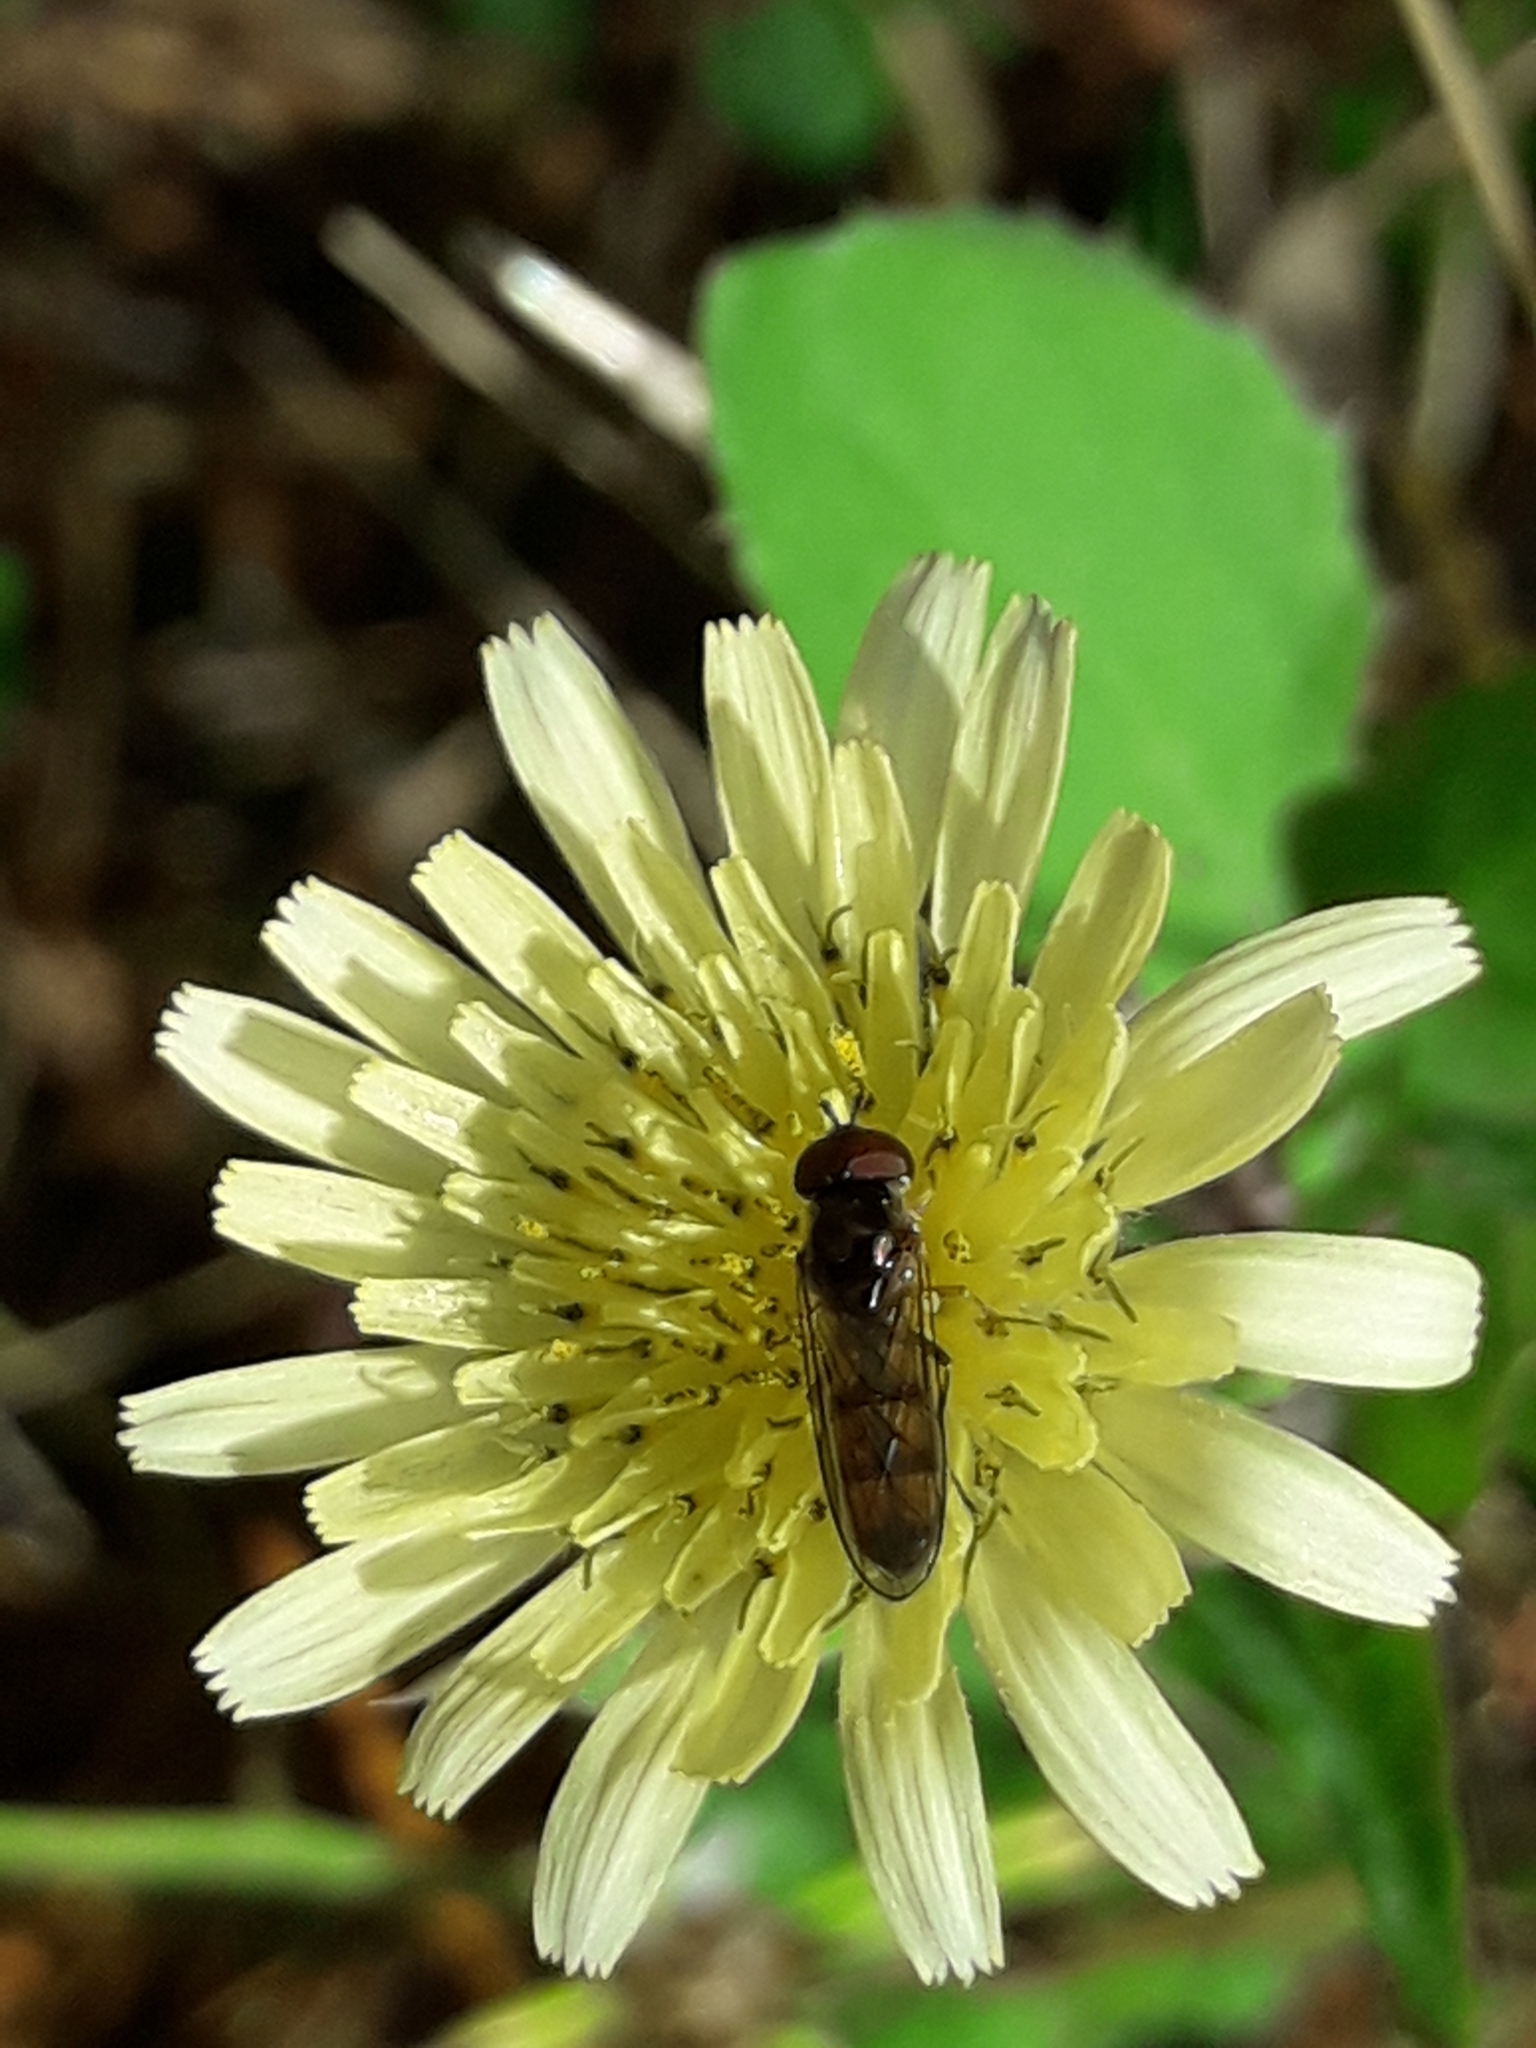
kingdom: Animalia
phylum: Arthropoda
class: Insecta
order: Diptera
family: Syrphidae
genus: Melanostoma
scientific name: Melanostoma fasciatum
